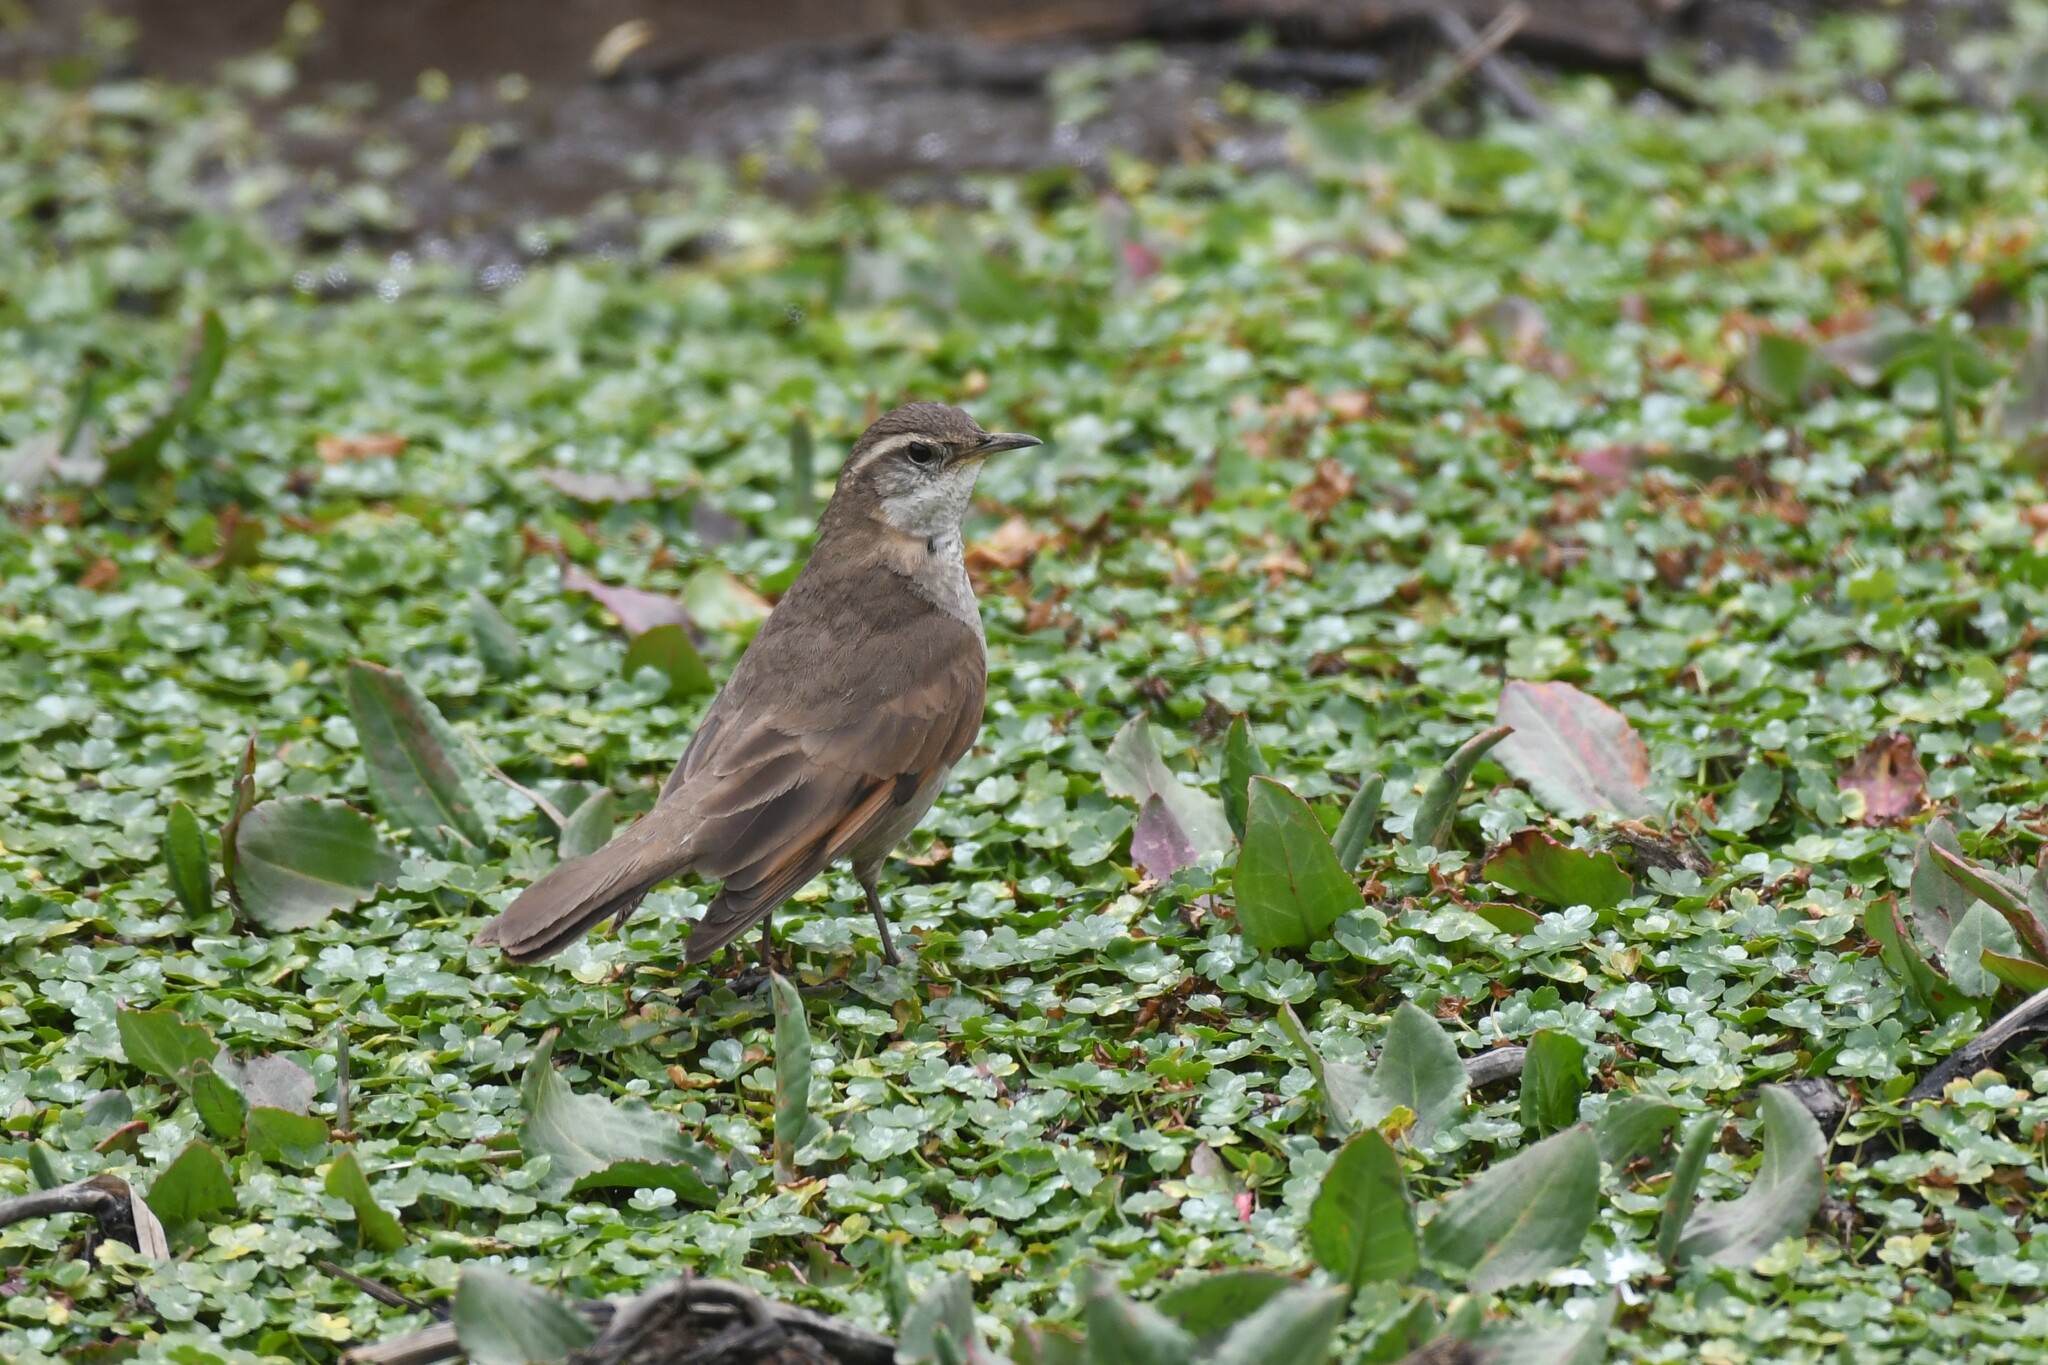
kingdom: Animalia
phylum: Chordata
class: Aves
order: Passeriformes
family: Furnariidae
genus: Cinclodes
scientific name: Cinclodes comechingonus
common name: Cordoba cinclodes
